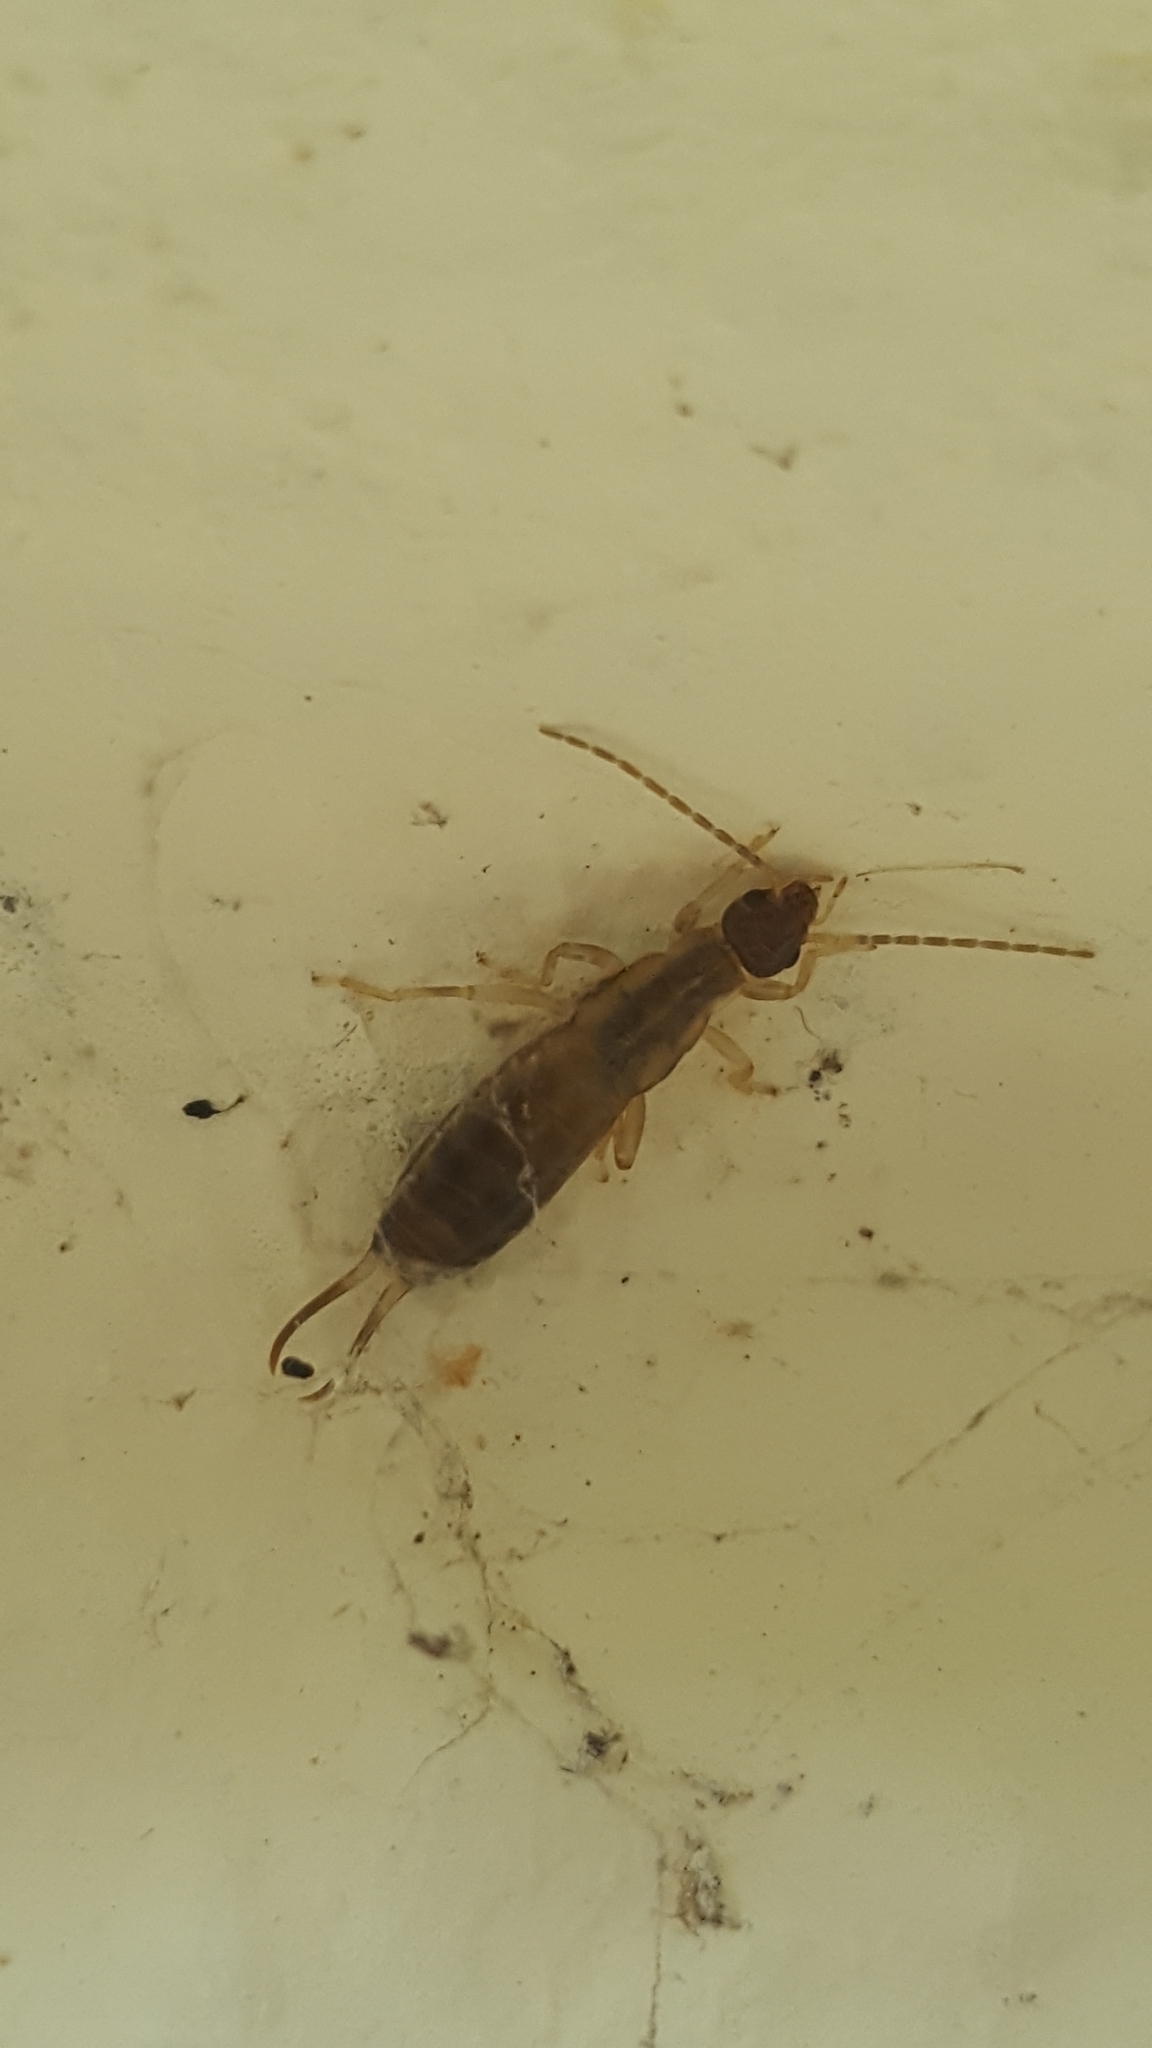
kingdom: Animalia
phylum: Arthropoda
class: Insecta
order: Dermaptera
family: Forficulidae
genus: Forficula
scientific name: Forficula
